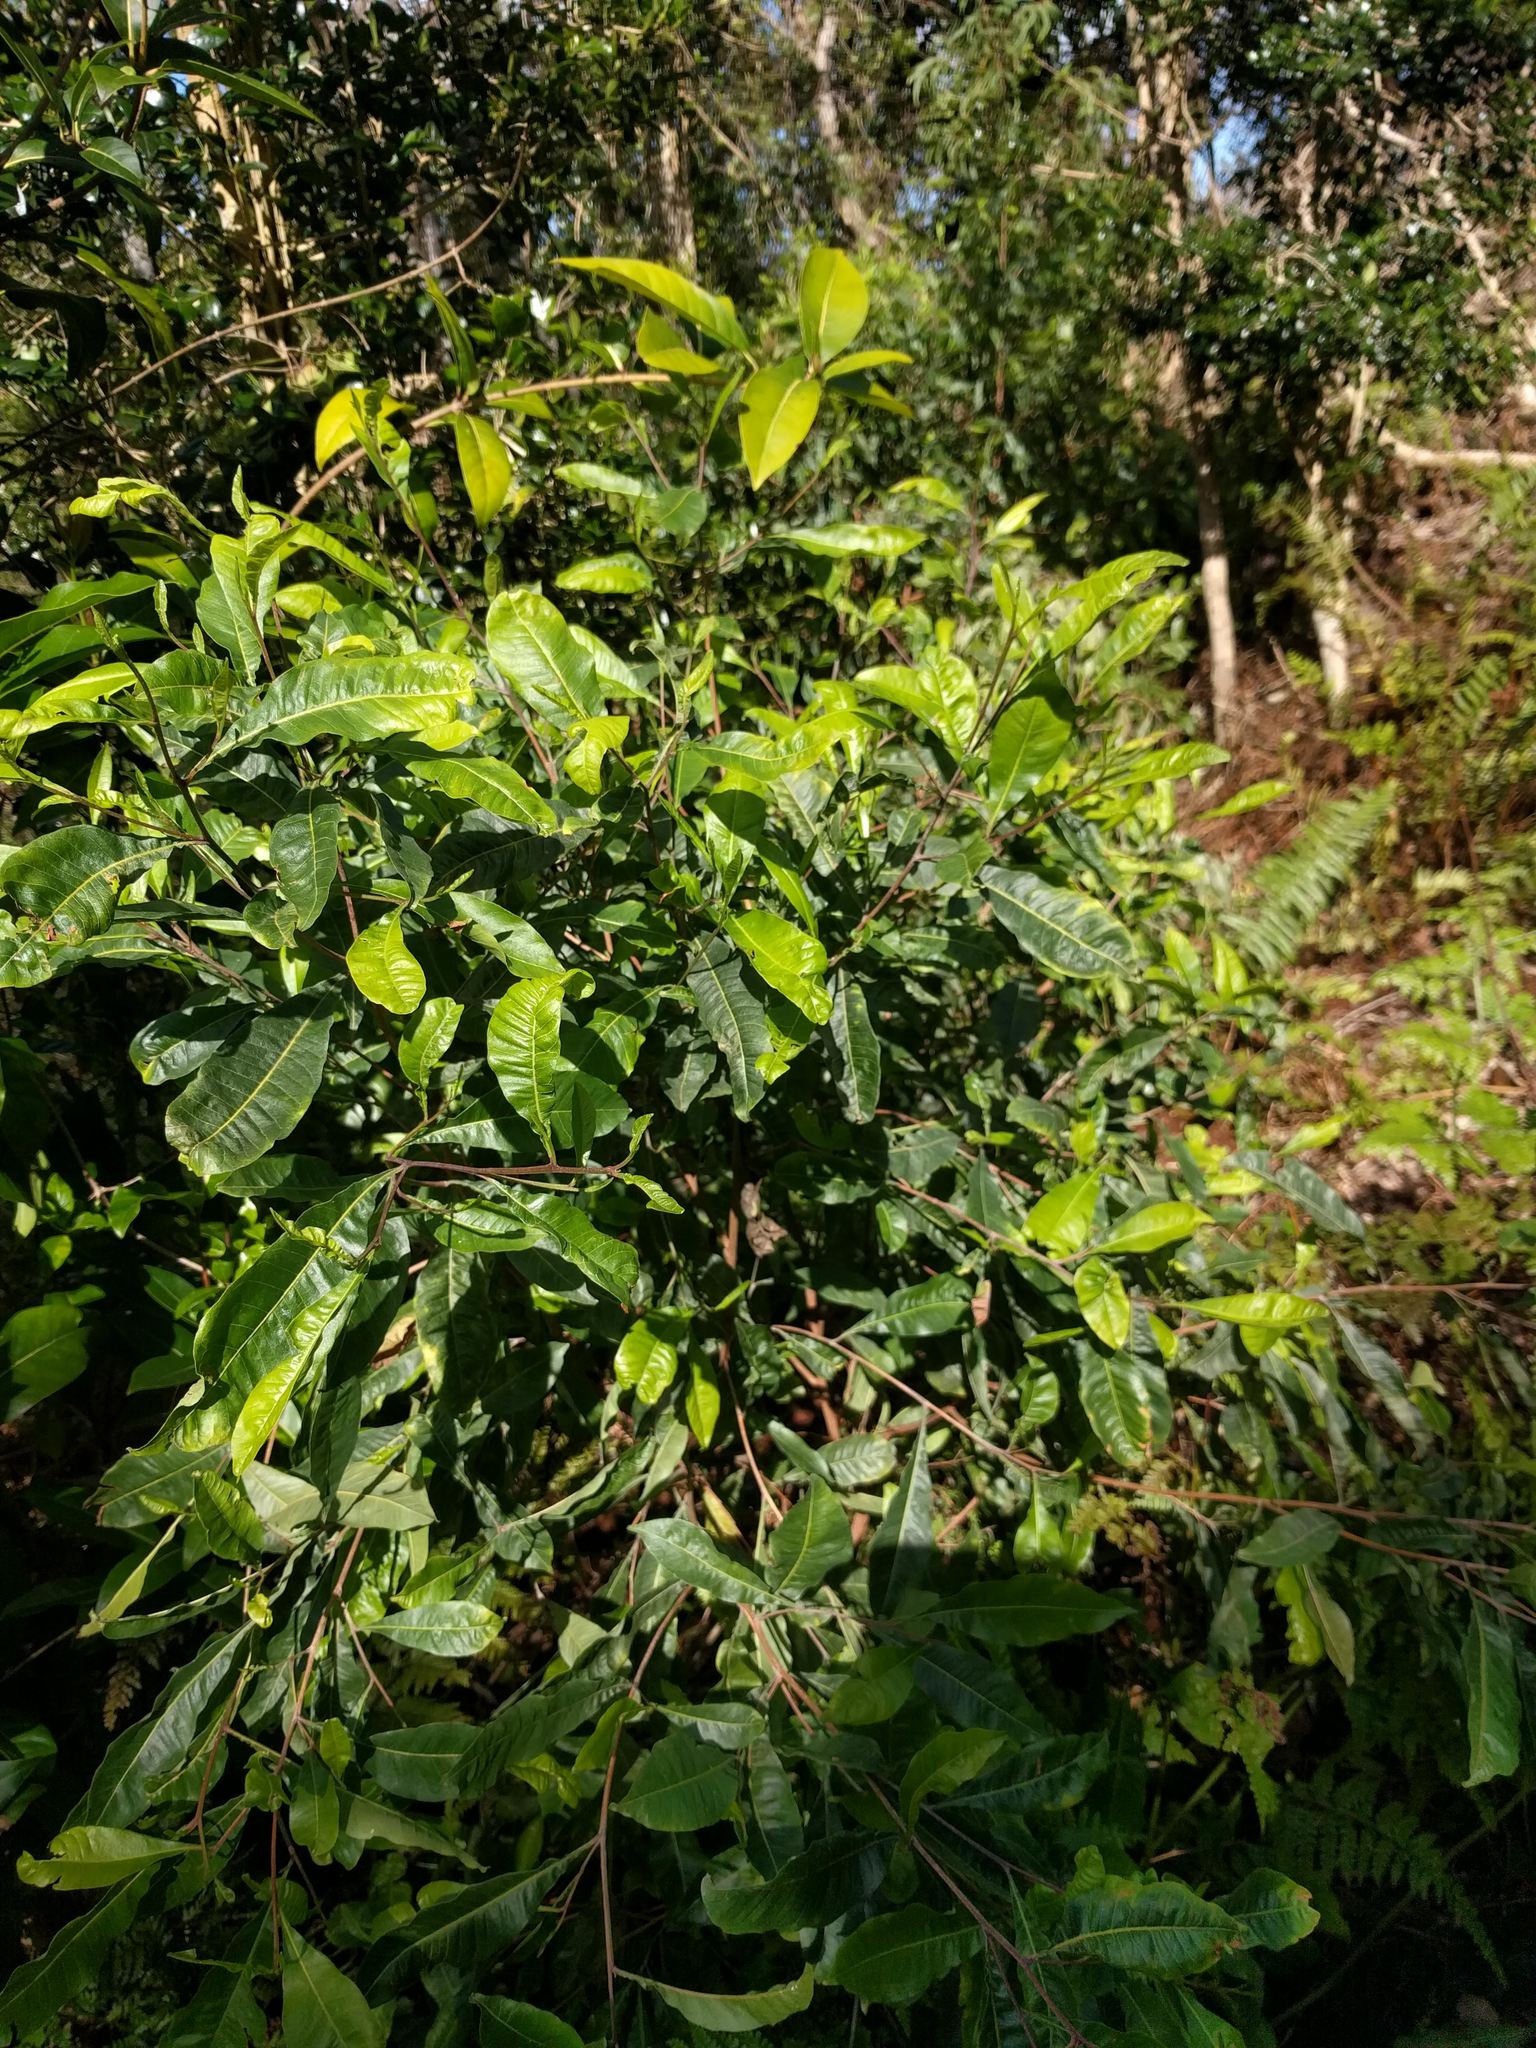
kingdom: Plantae
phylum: Tracheophyta
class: Magnoliopsida
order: Sapindales
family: Sapindaceae
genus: Dodonaea
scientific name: Dodonaea viscosa
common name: Hopbush
